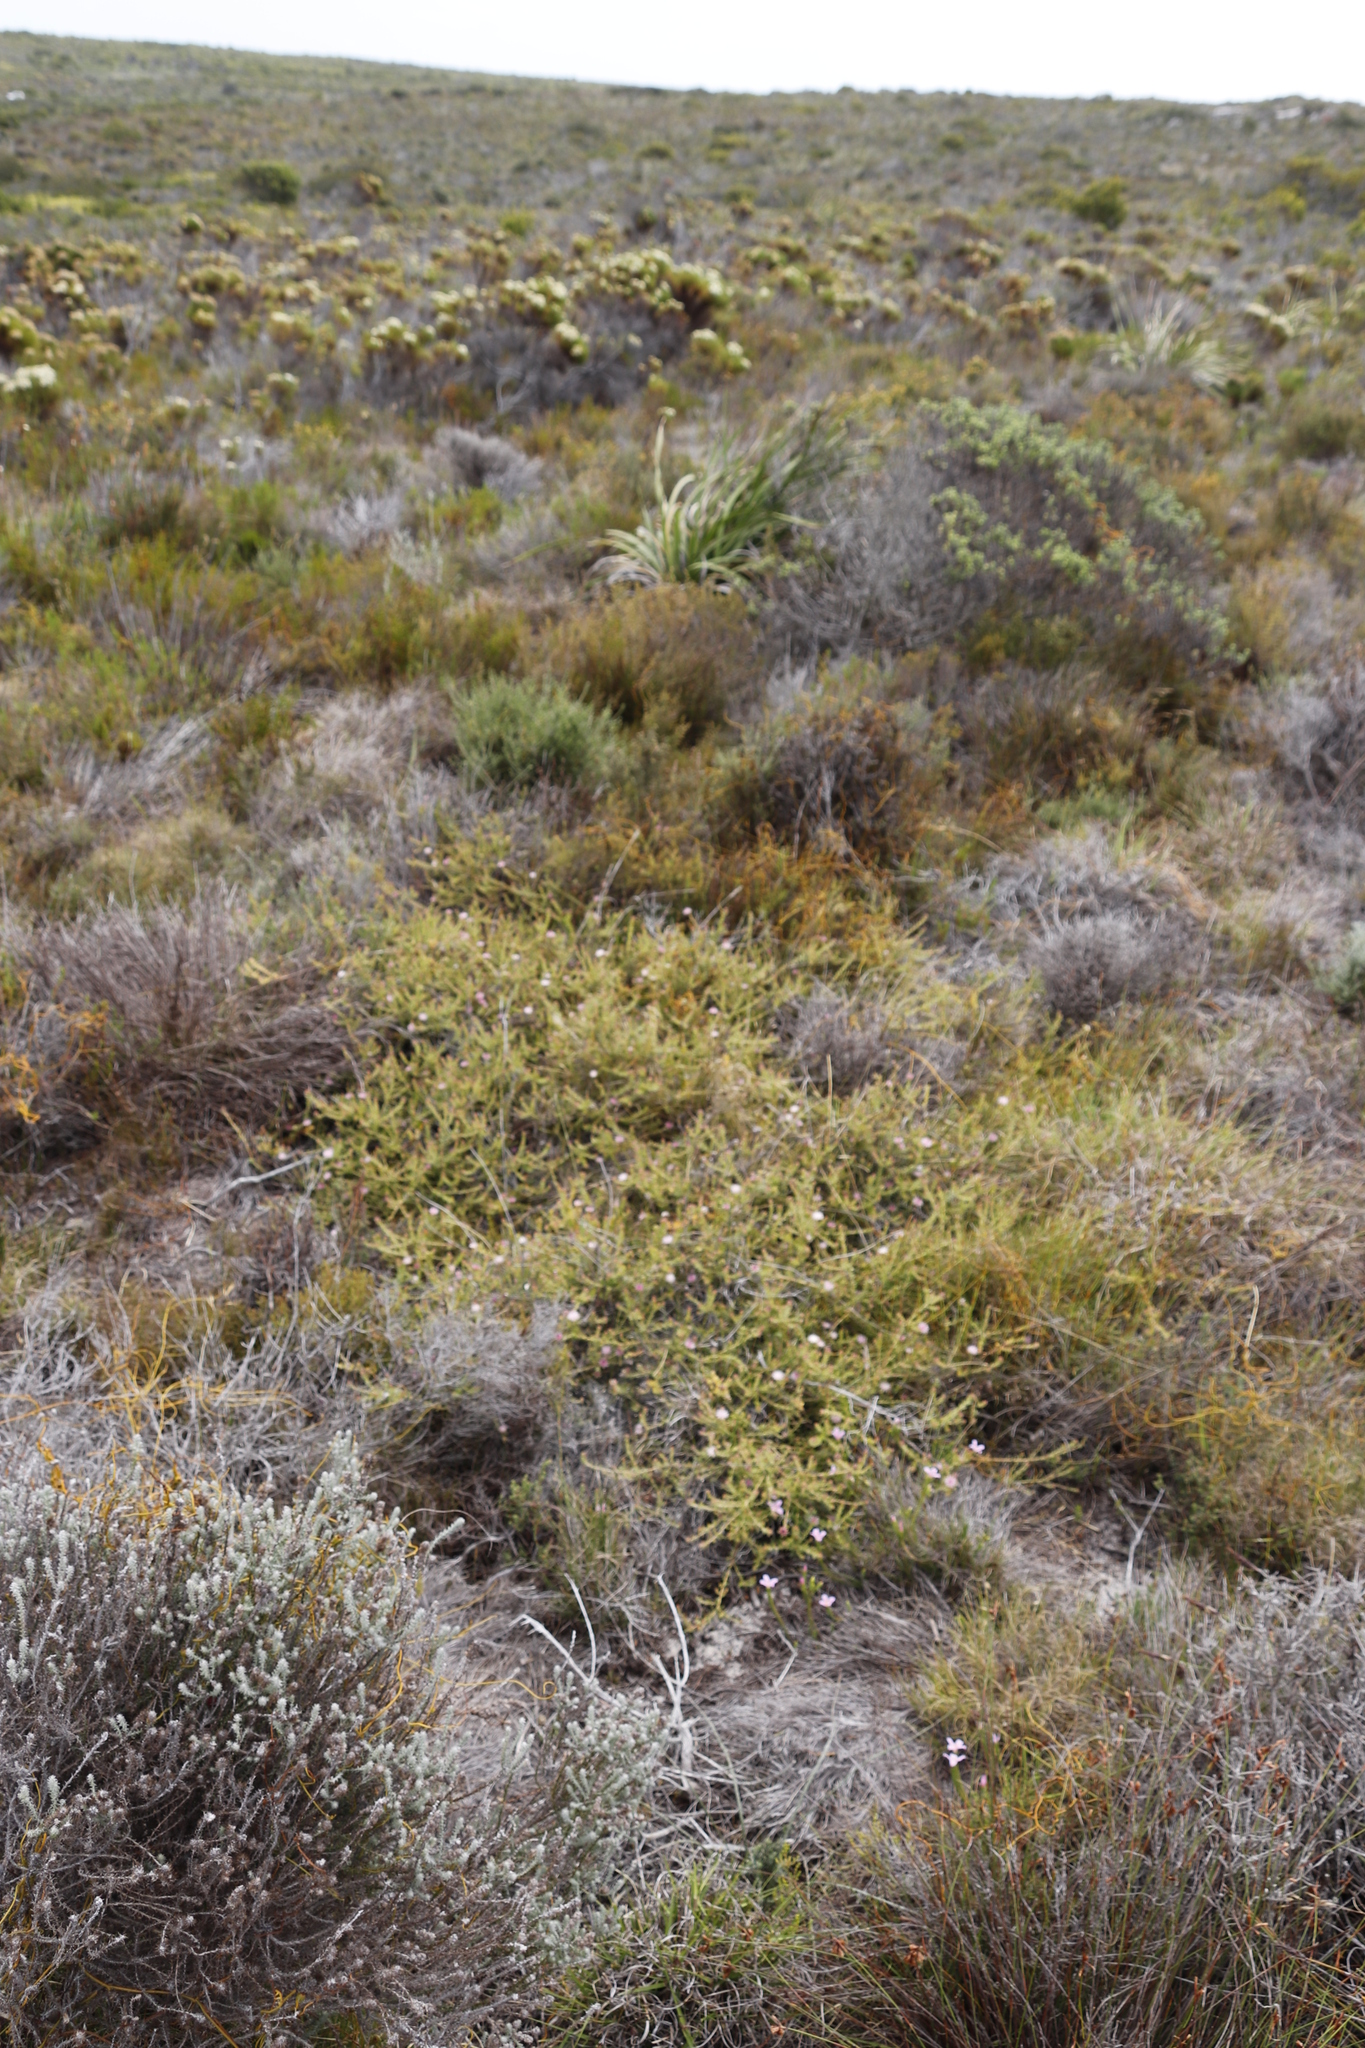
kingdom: Plantae
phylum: Tracheophyta
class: Magnoliopsida
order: Proteales
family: Proteaceae
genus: Diastella
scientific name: Diastella divaricata
